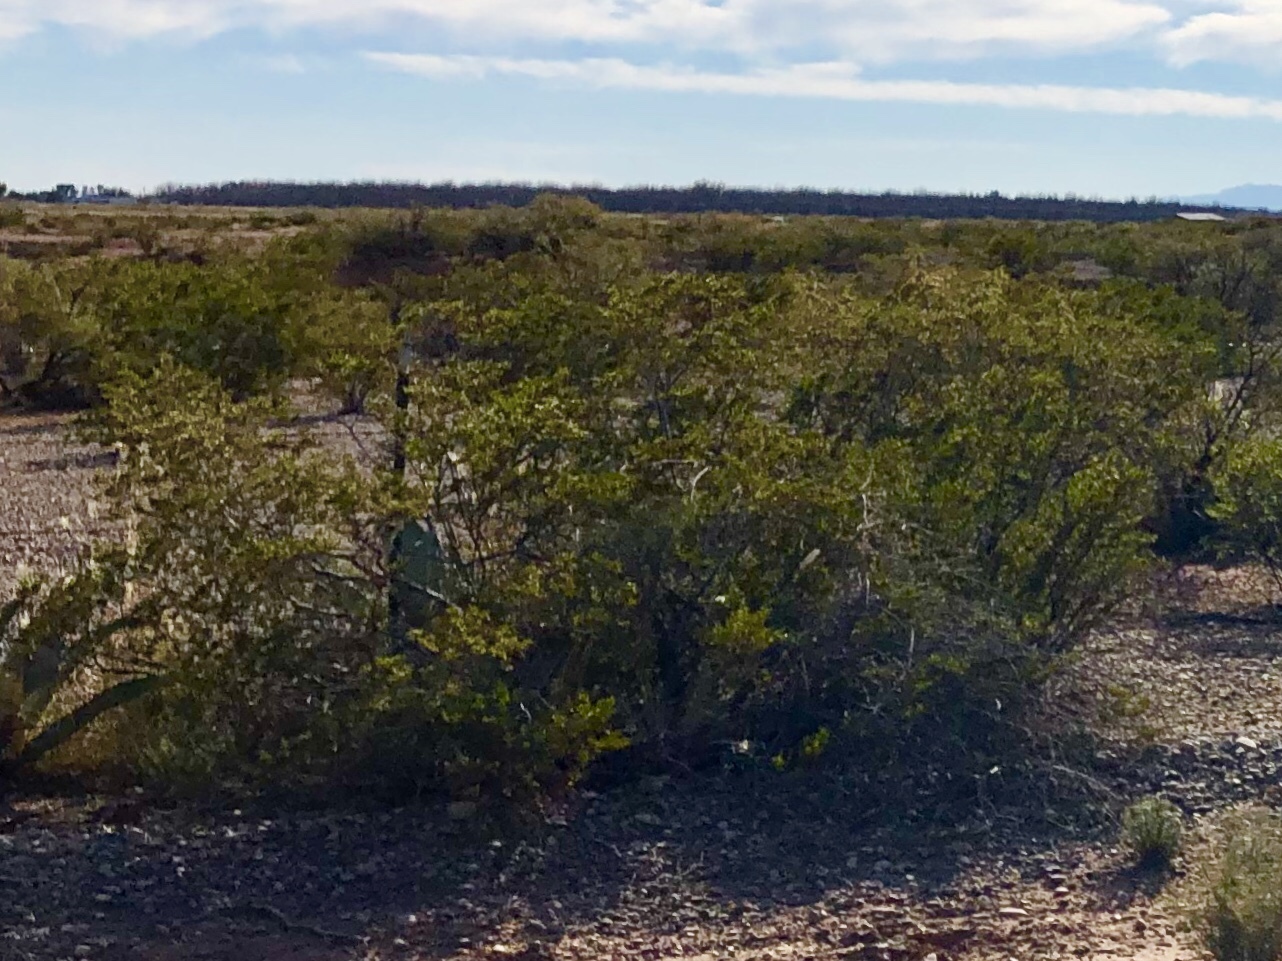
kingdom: Plantae
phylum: Tracheophyta
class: Magnoliopsida
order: Zygophyllales
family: Zygophyllaceae
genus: Larrea
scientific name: Larrea tridentata
